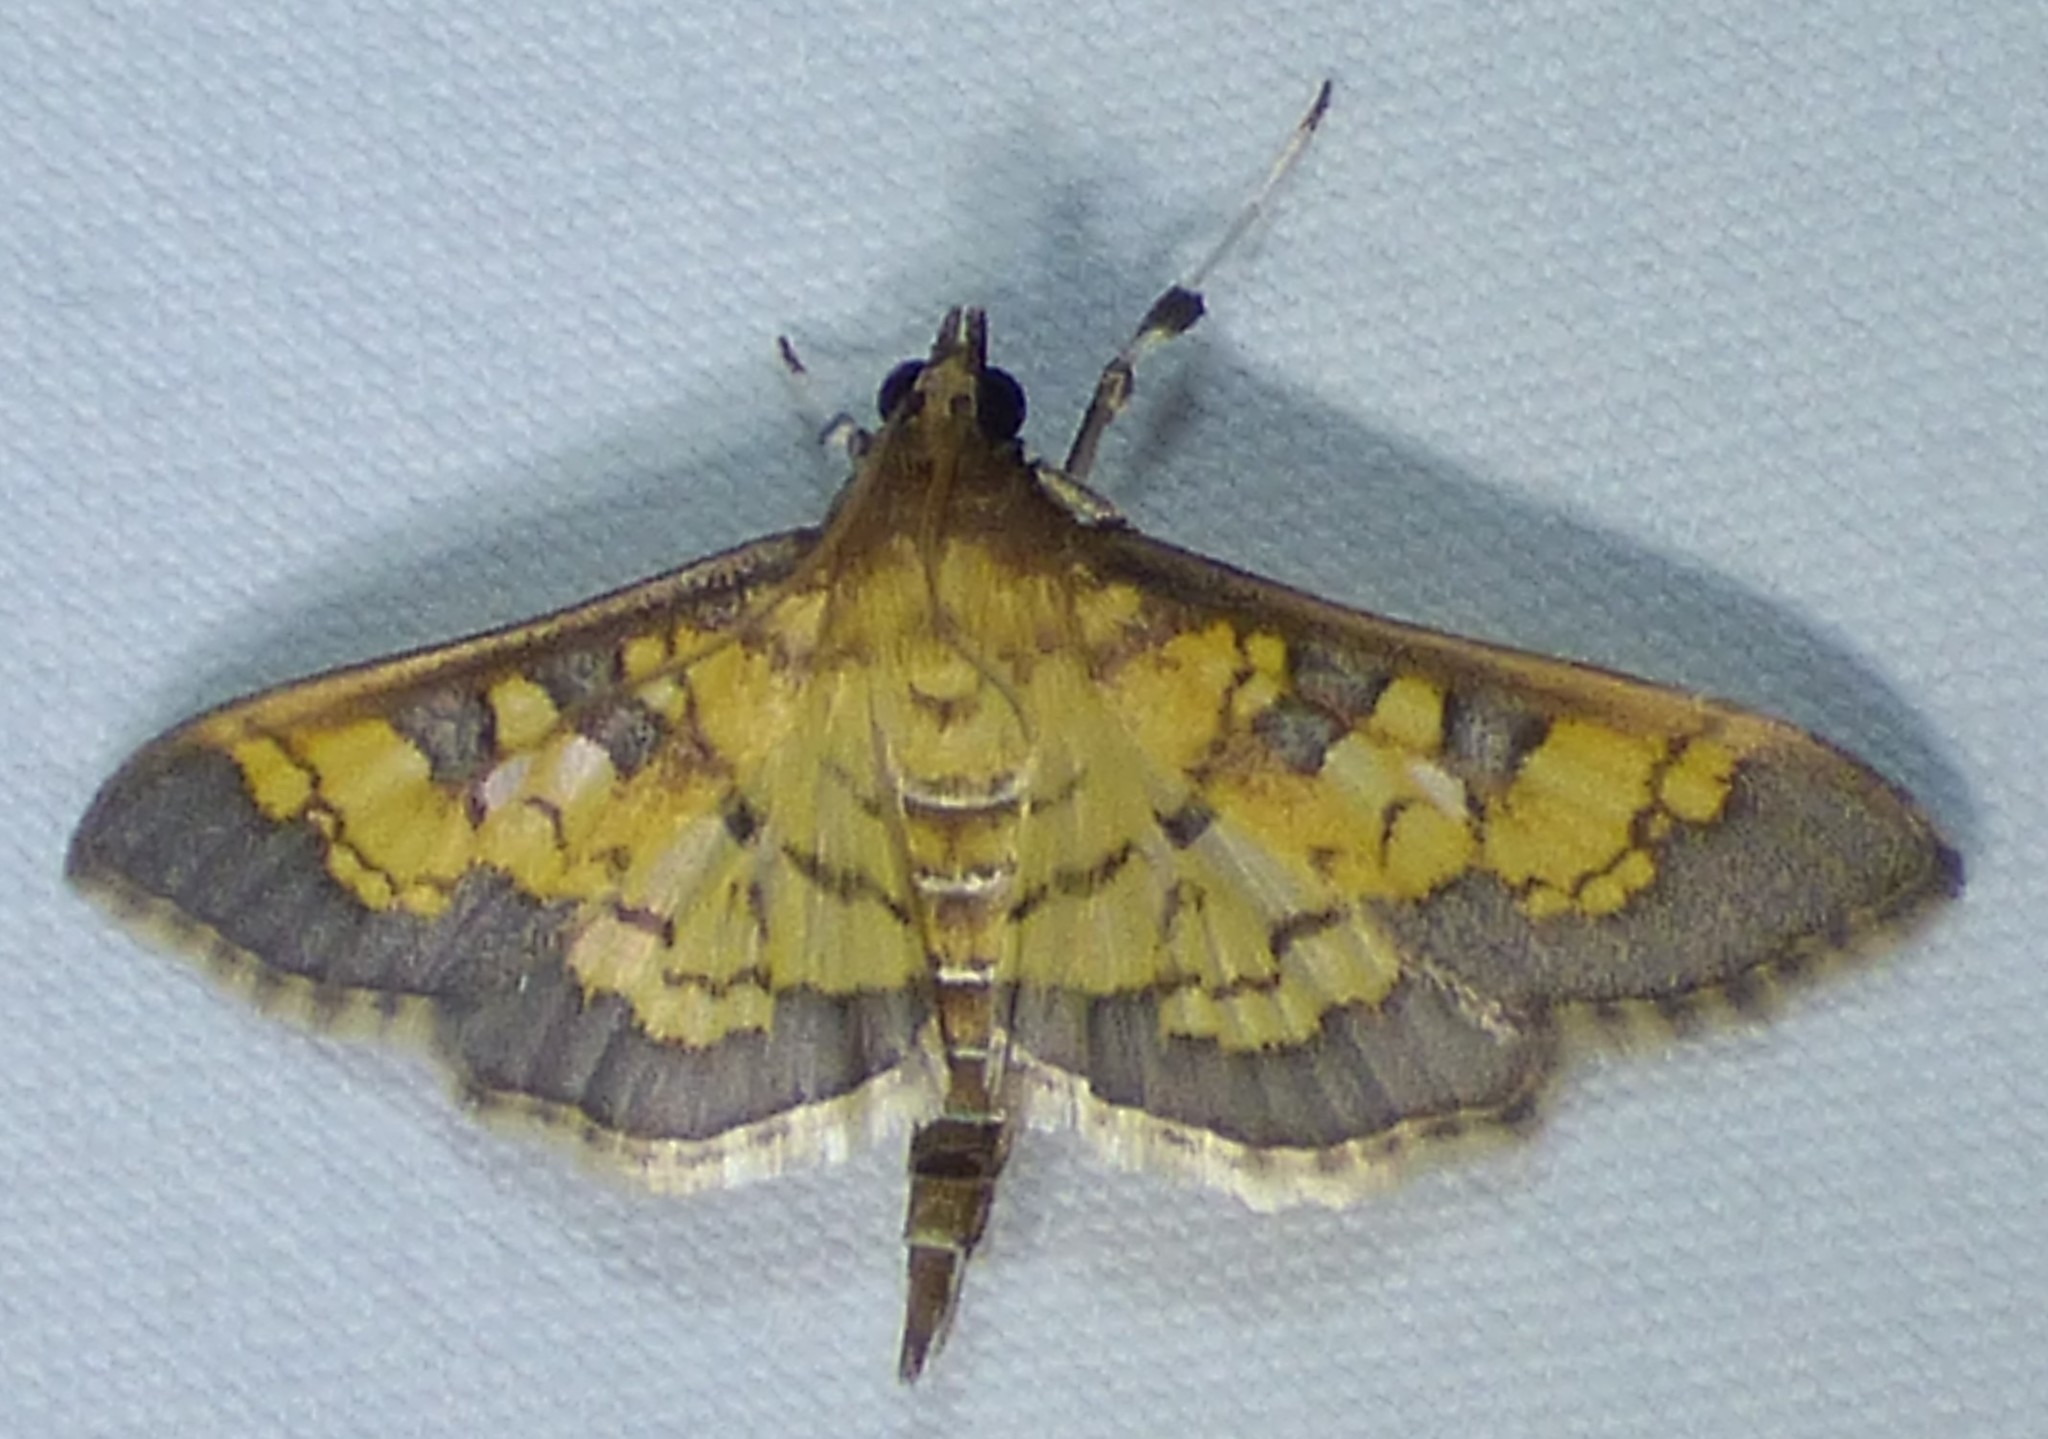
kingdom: Animalia
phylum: Arthropoda
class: Insecta
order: Lepidoptera
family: Crambidae
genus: Epipagis
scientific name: Epipagis adipaloides
